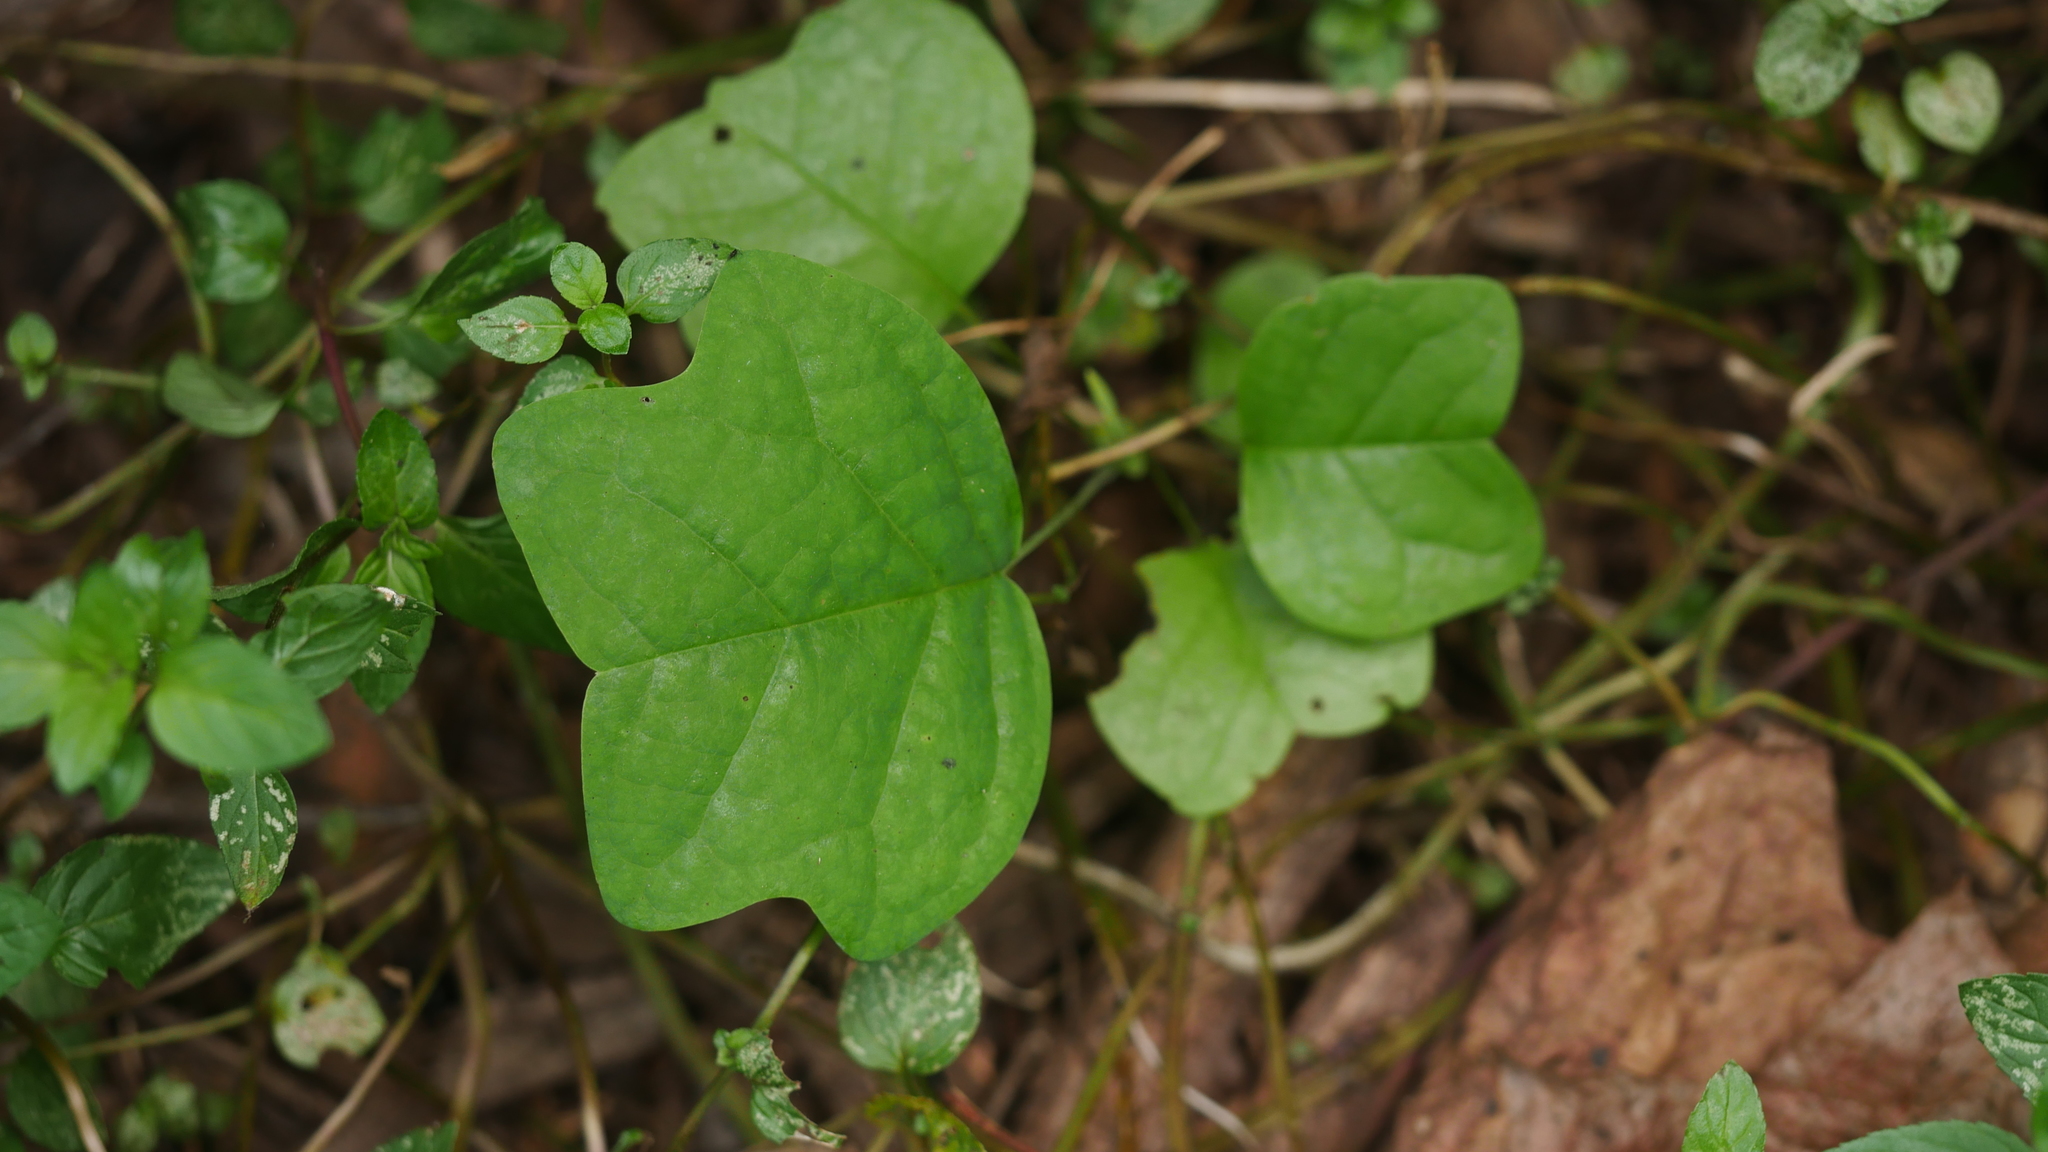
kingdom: Plantae
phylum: Tracheophyta
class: Magnoliopsida
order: Magnoliales
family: Magnoliaceae
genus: Liriodendron
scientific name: Liriodendron tulipifera
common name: Tulip tree
